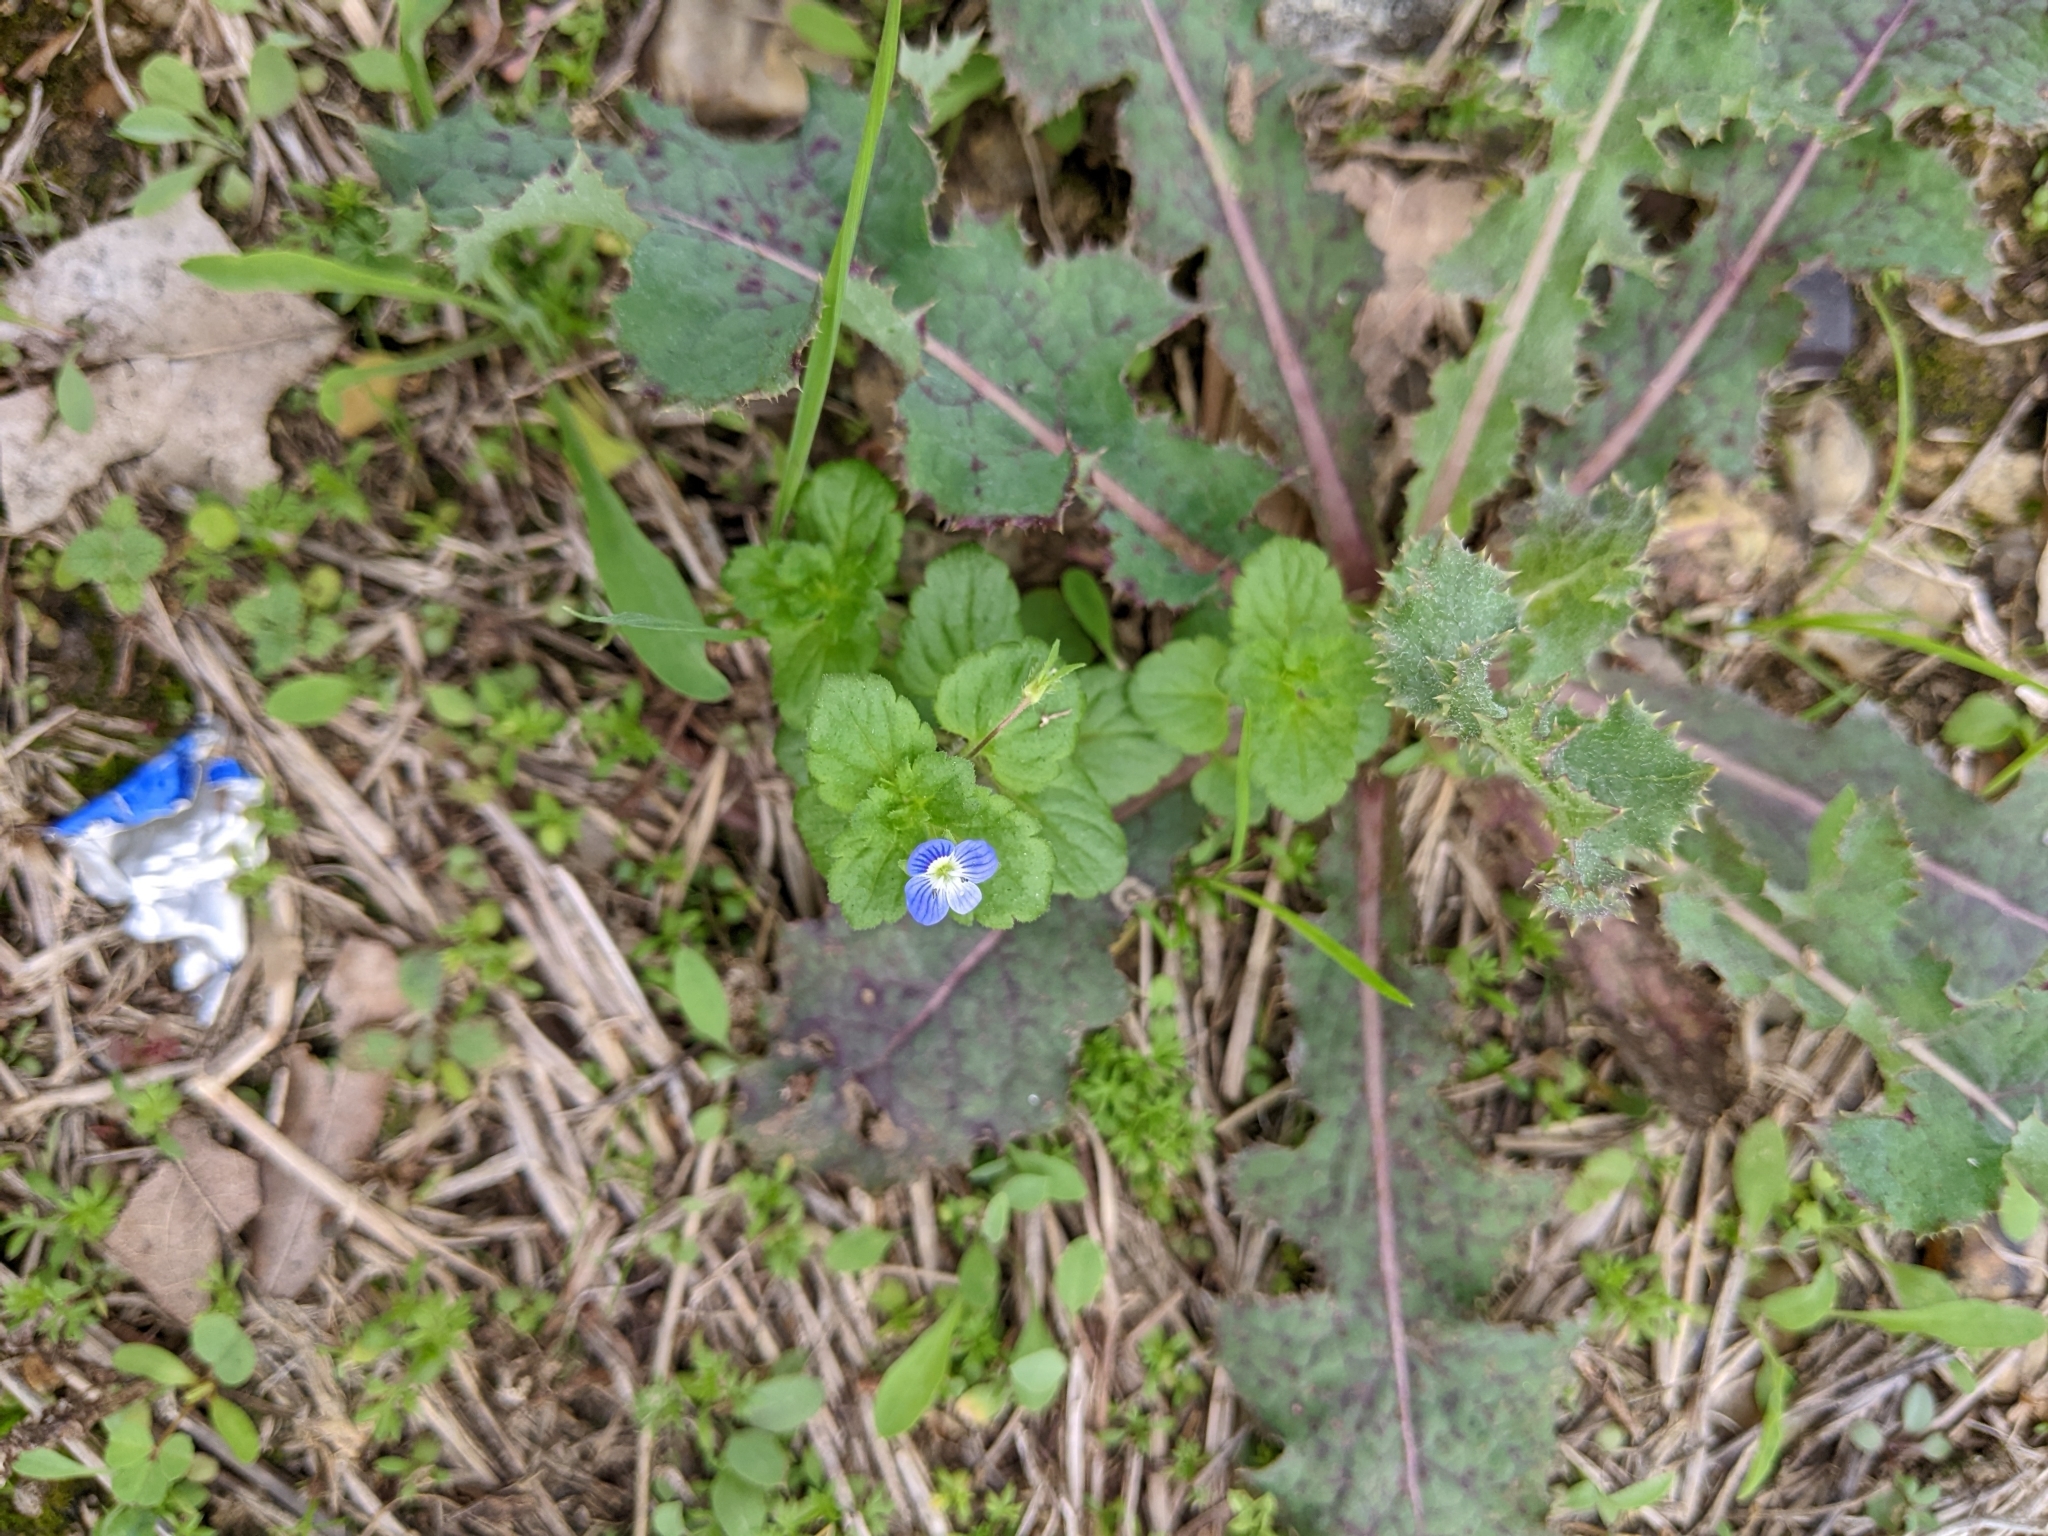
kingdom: Plantae
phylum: Tracheophyta
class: Magnoliopsida
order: Lamiales
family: Plantaginaceae
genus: Veronica
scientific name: Veronica persica
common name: Common field-speedwell
